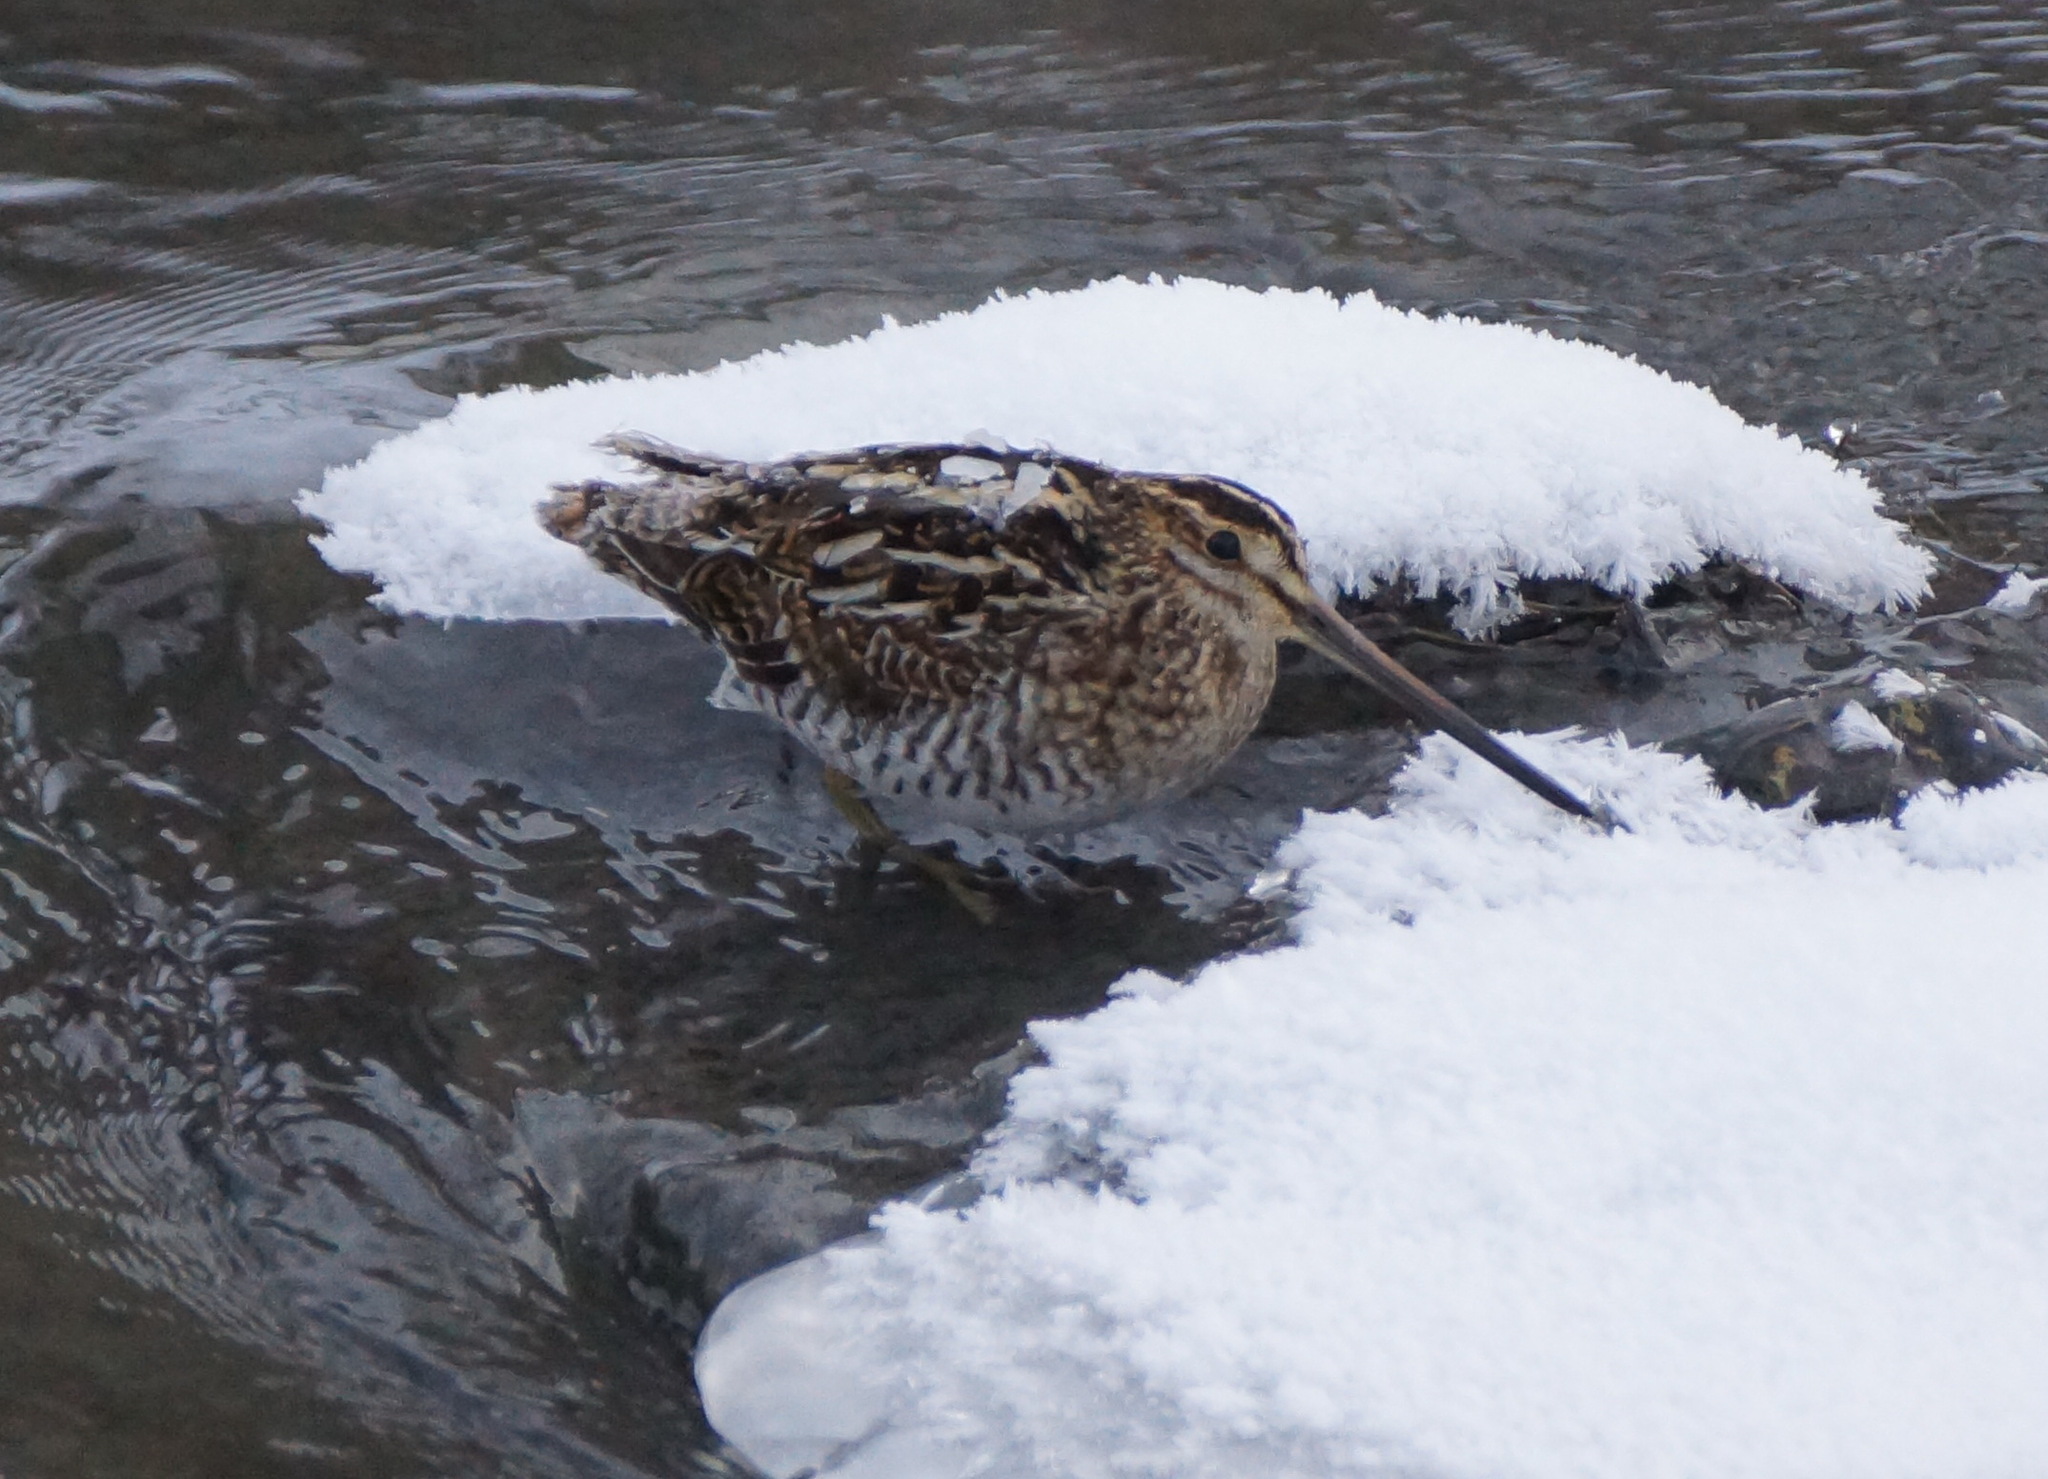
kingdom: Animalia
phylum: Chordata
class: Aves
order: Charadriiformes
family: Scolopacidae
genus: Gallinago
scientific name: Gallinago gallinago
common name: Common snipe
